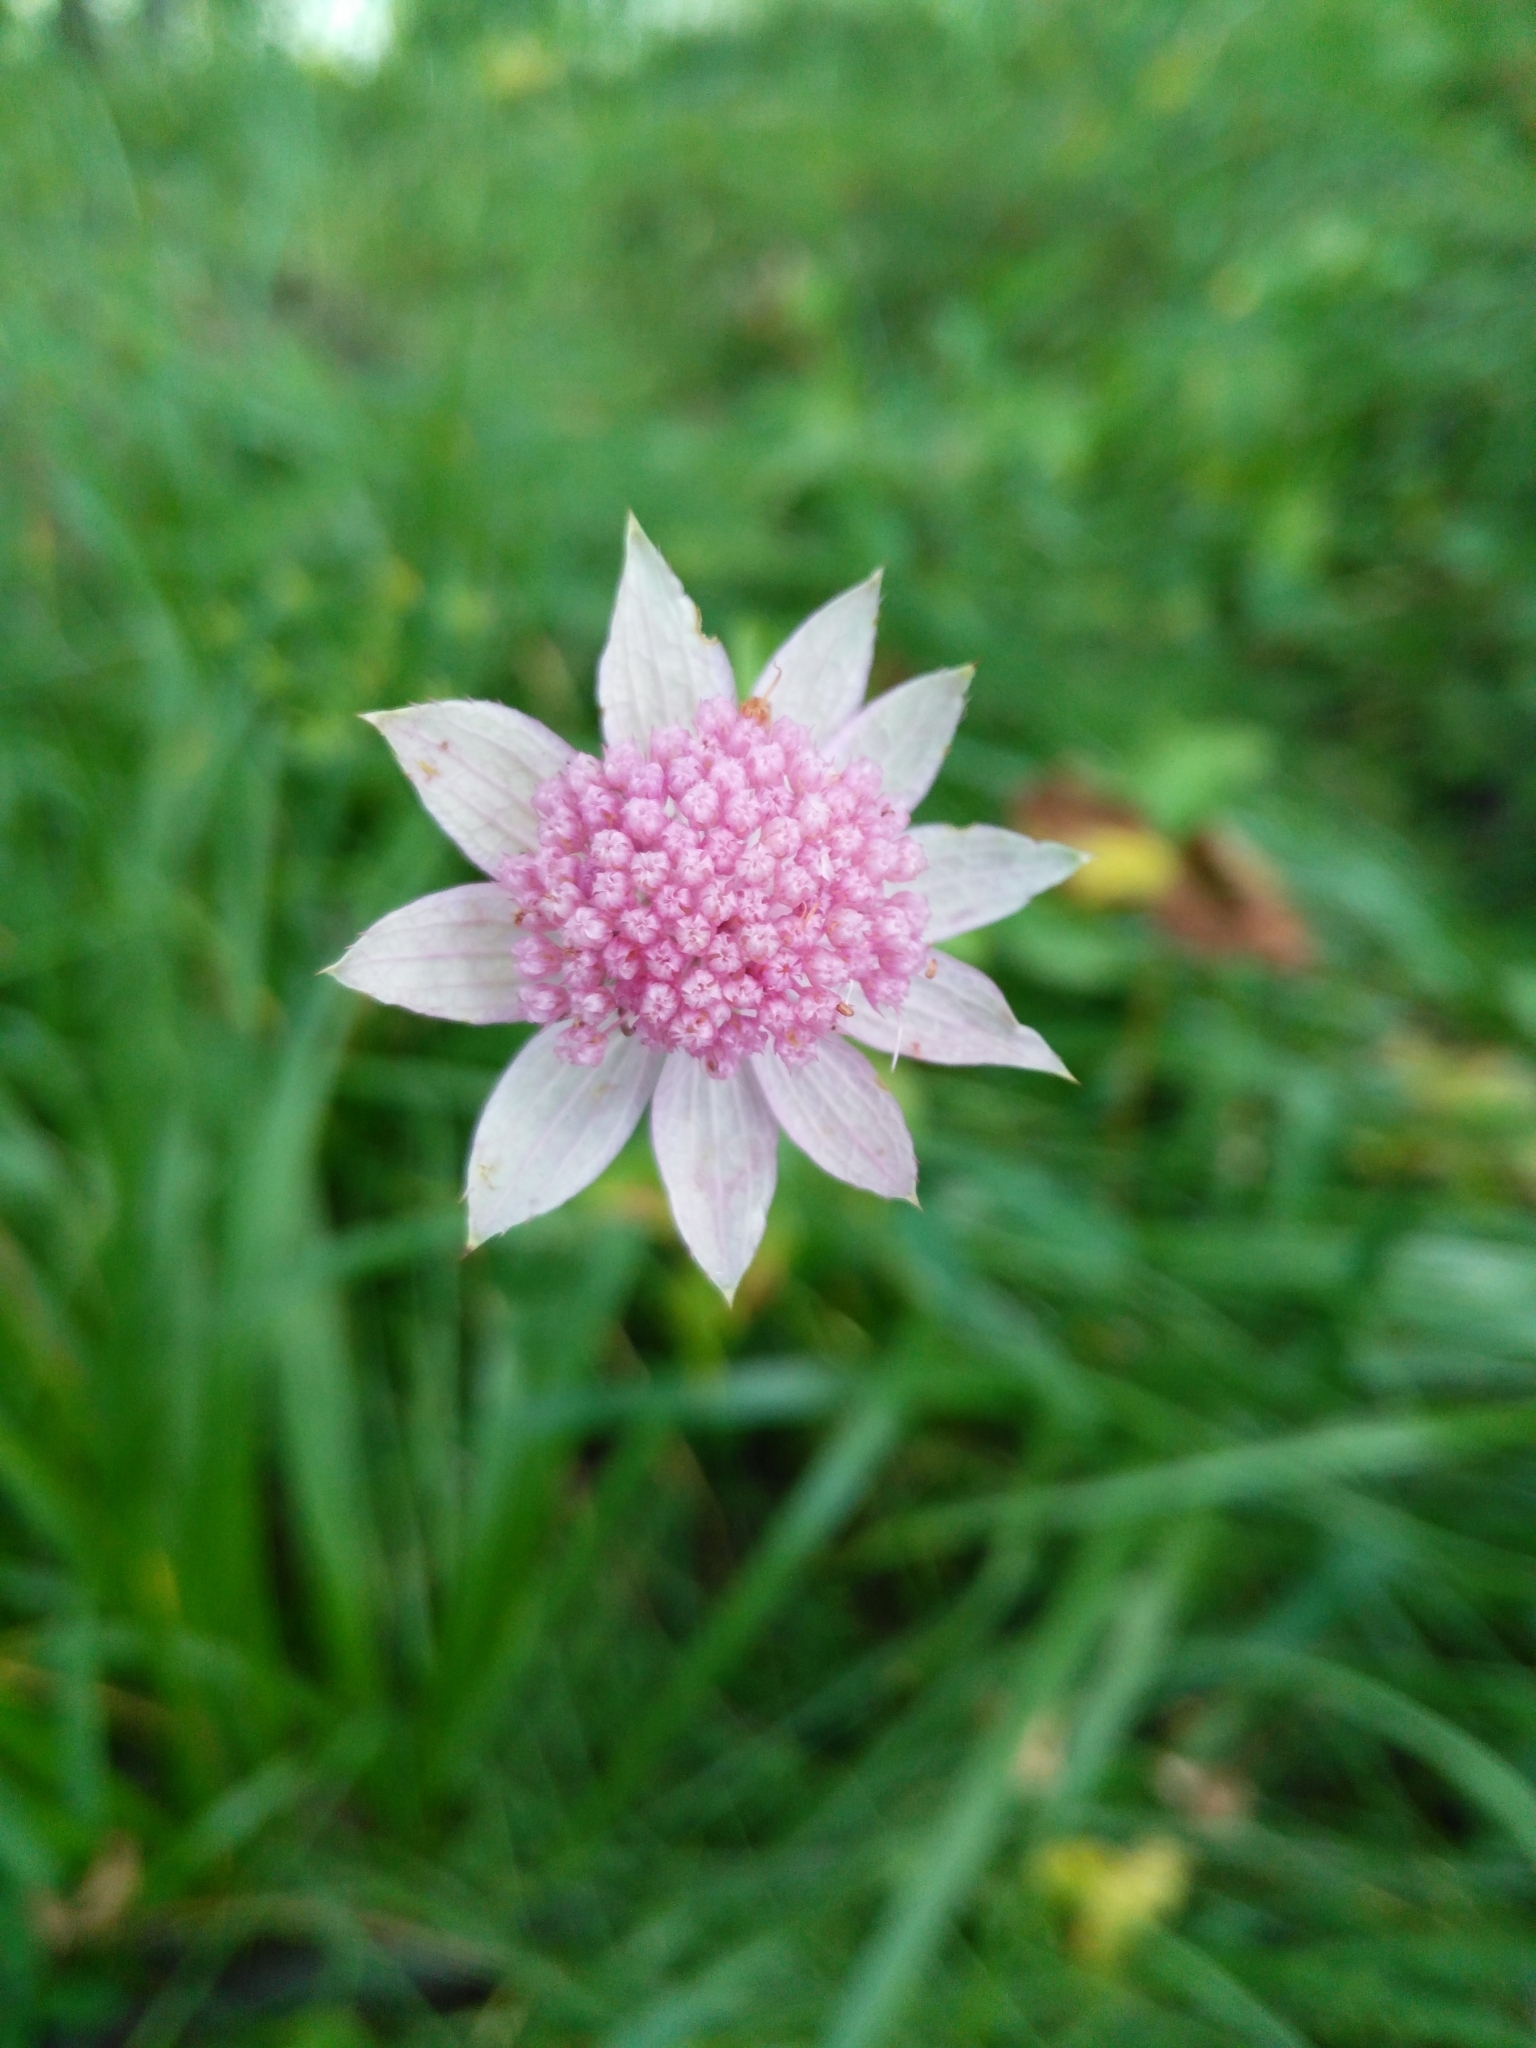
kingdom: Plantae
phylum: Tracheophyta
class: Magnoliopsida
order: Apiales
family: Apiaceae
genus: Astrantia
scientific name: Astrantia maxima
